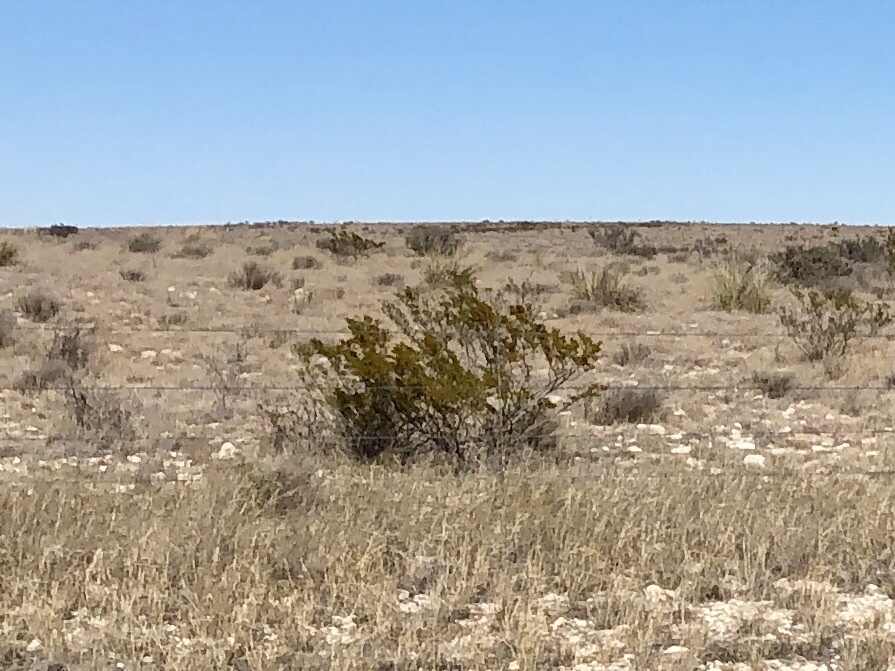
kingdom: Plantae
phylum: Tracheophyta
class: Magnoliopsida
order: Zygophyllales
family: Zygophyllaceae
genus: Larrea
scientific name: Larrea tridentata
